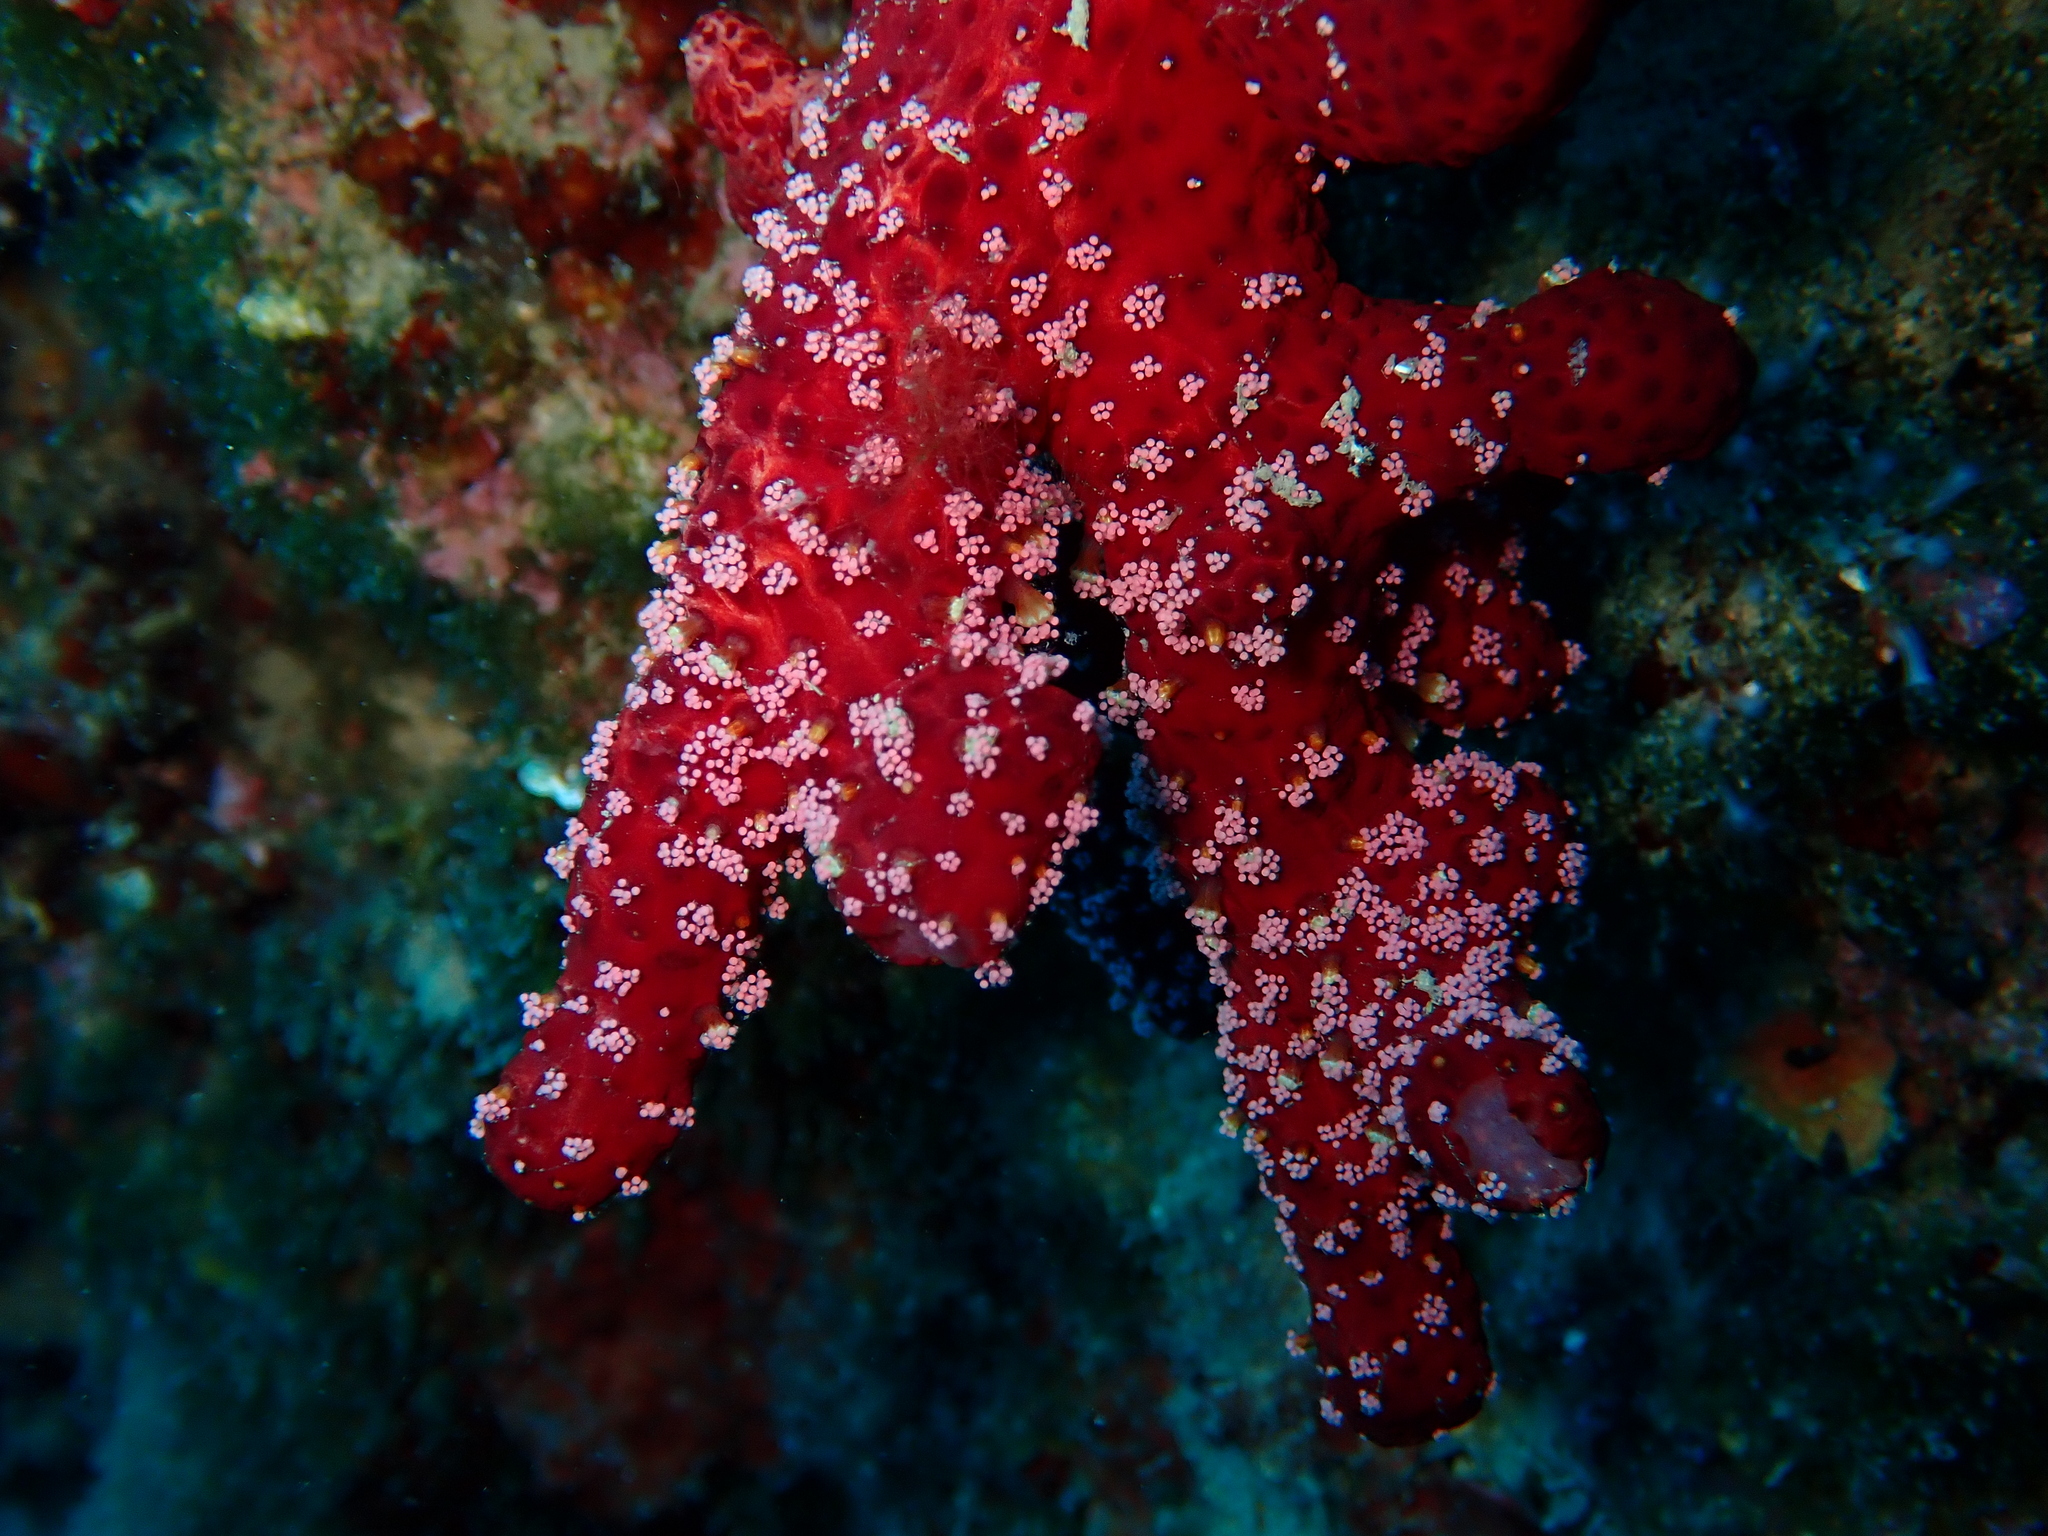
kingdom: Animalia
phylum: Cnidaria
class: Anthozoa
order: Malacalcyonacea
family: Alcyoniidae
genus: Alcyonium
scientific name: Alcyonium acaule
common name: Sea finger
